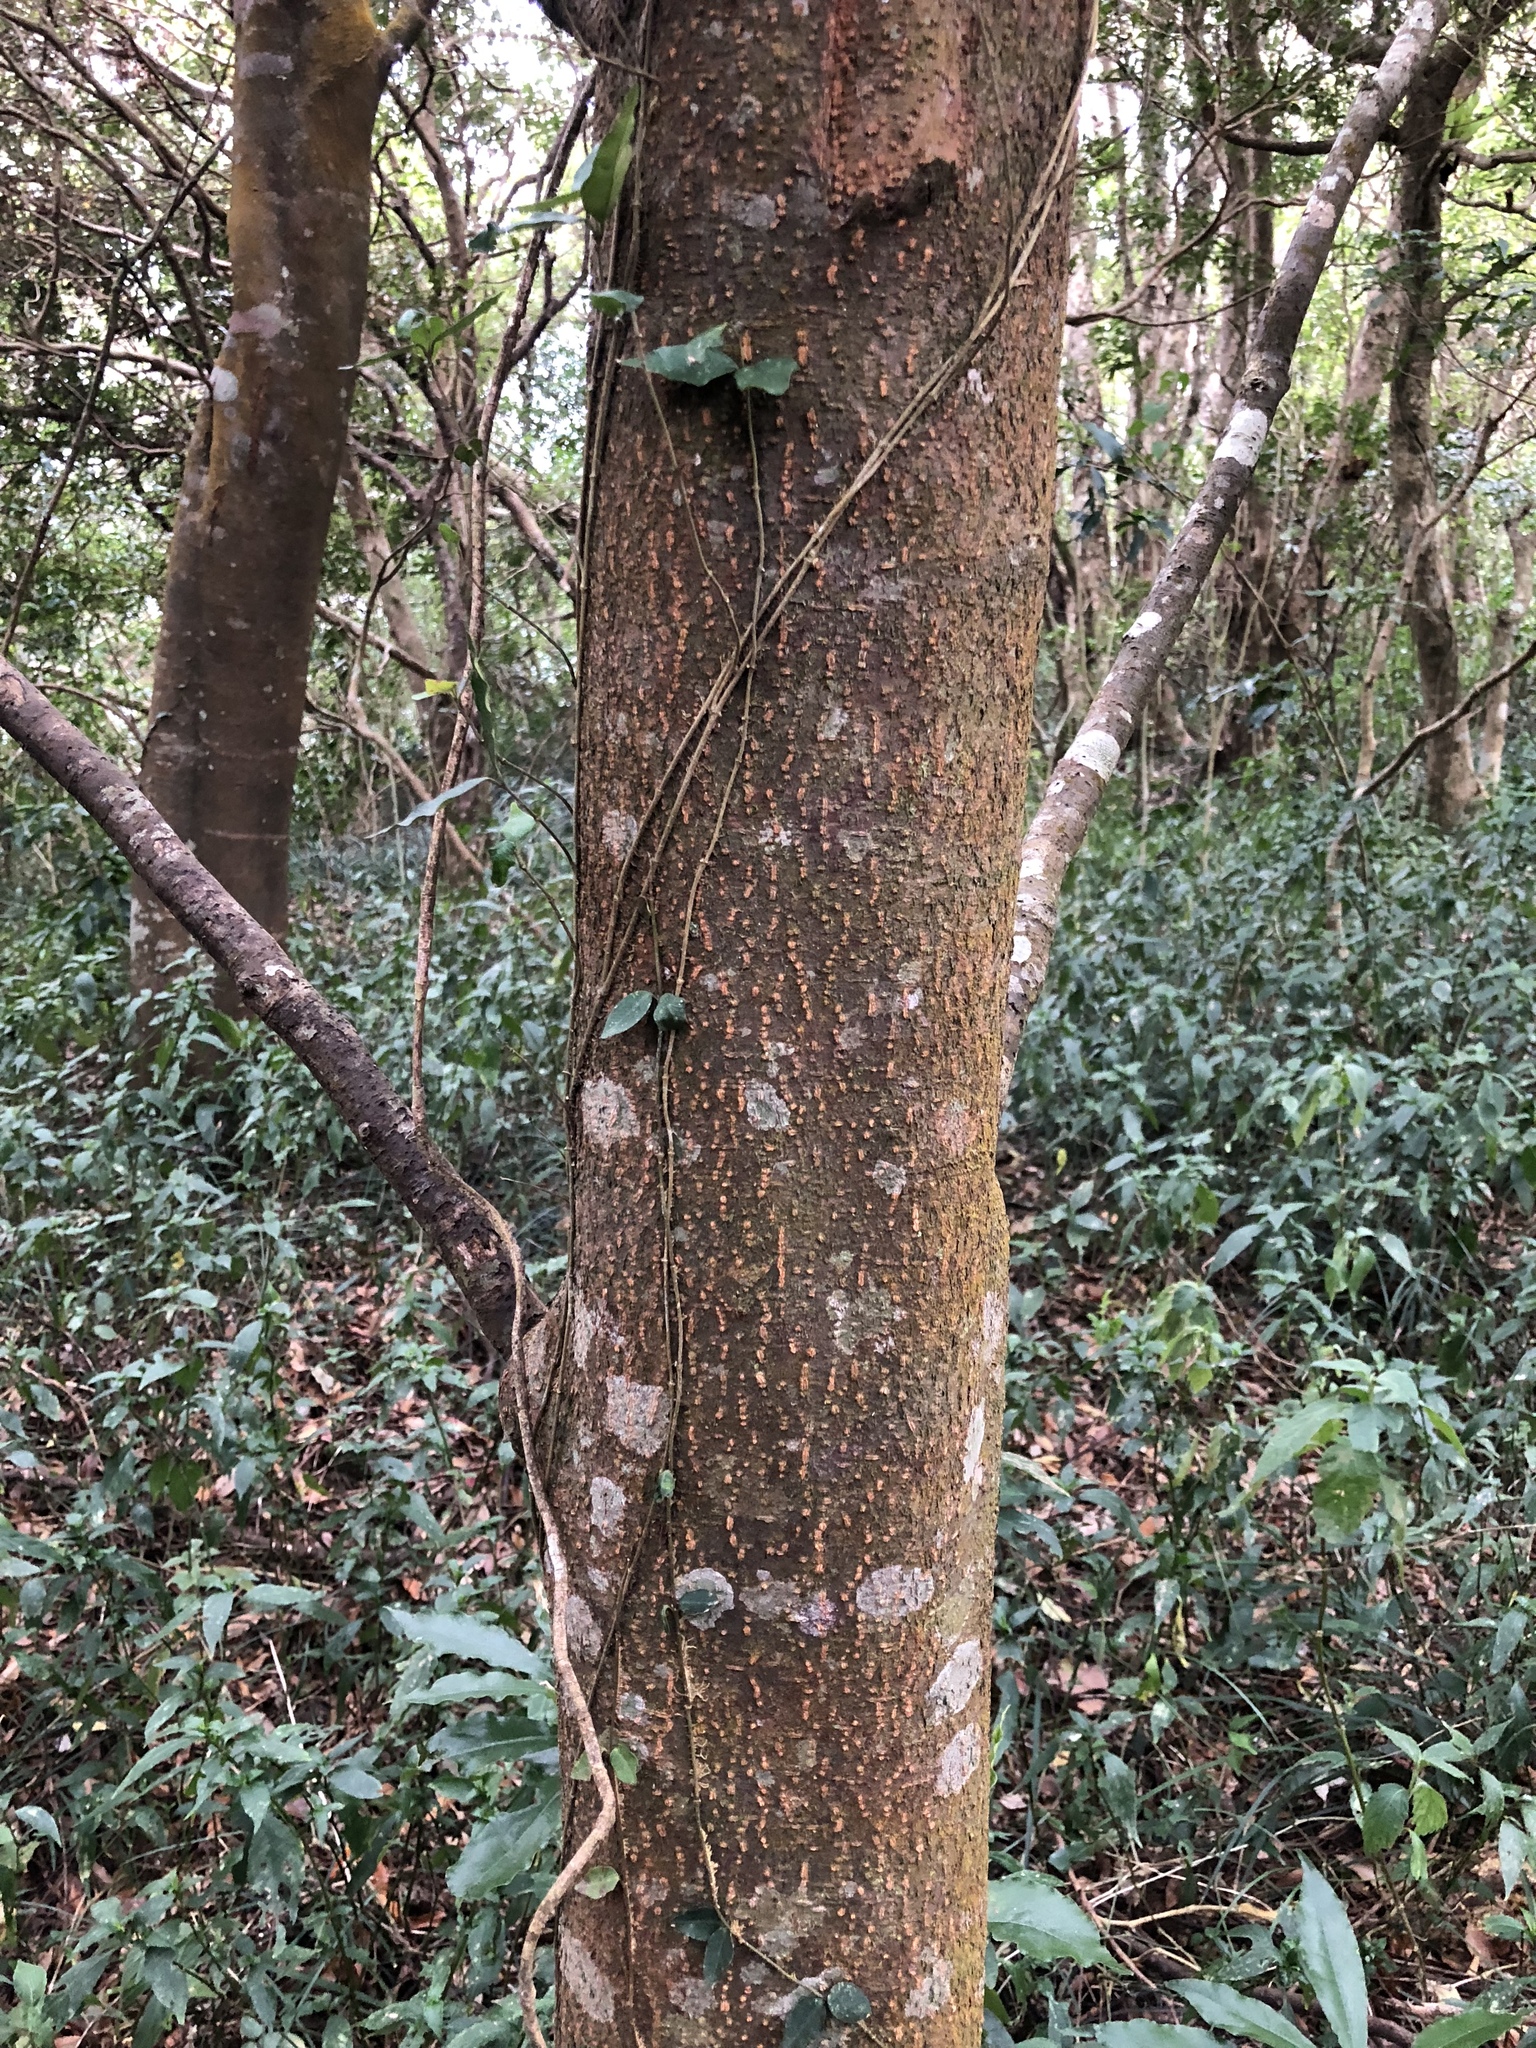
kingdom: Plantae
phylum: Tracheophyta
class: Magnoliopsida
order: Rosales
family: Rosaceae
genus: Prunus
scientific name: Prunus phaeosticta
